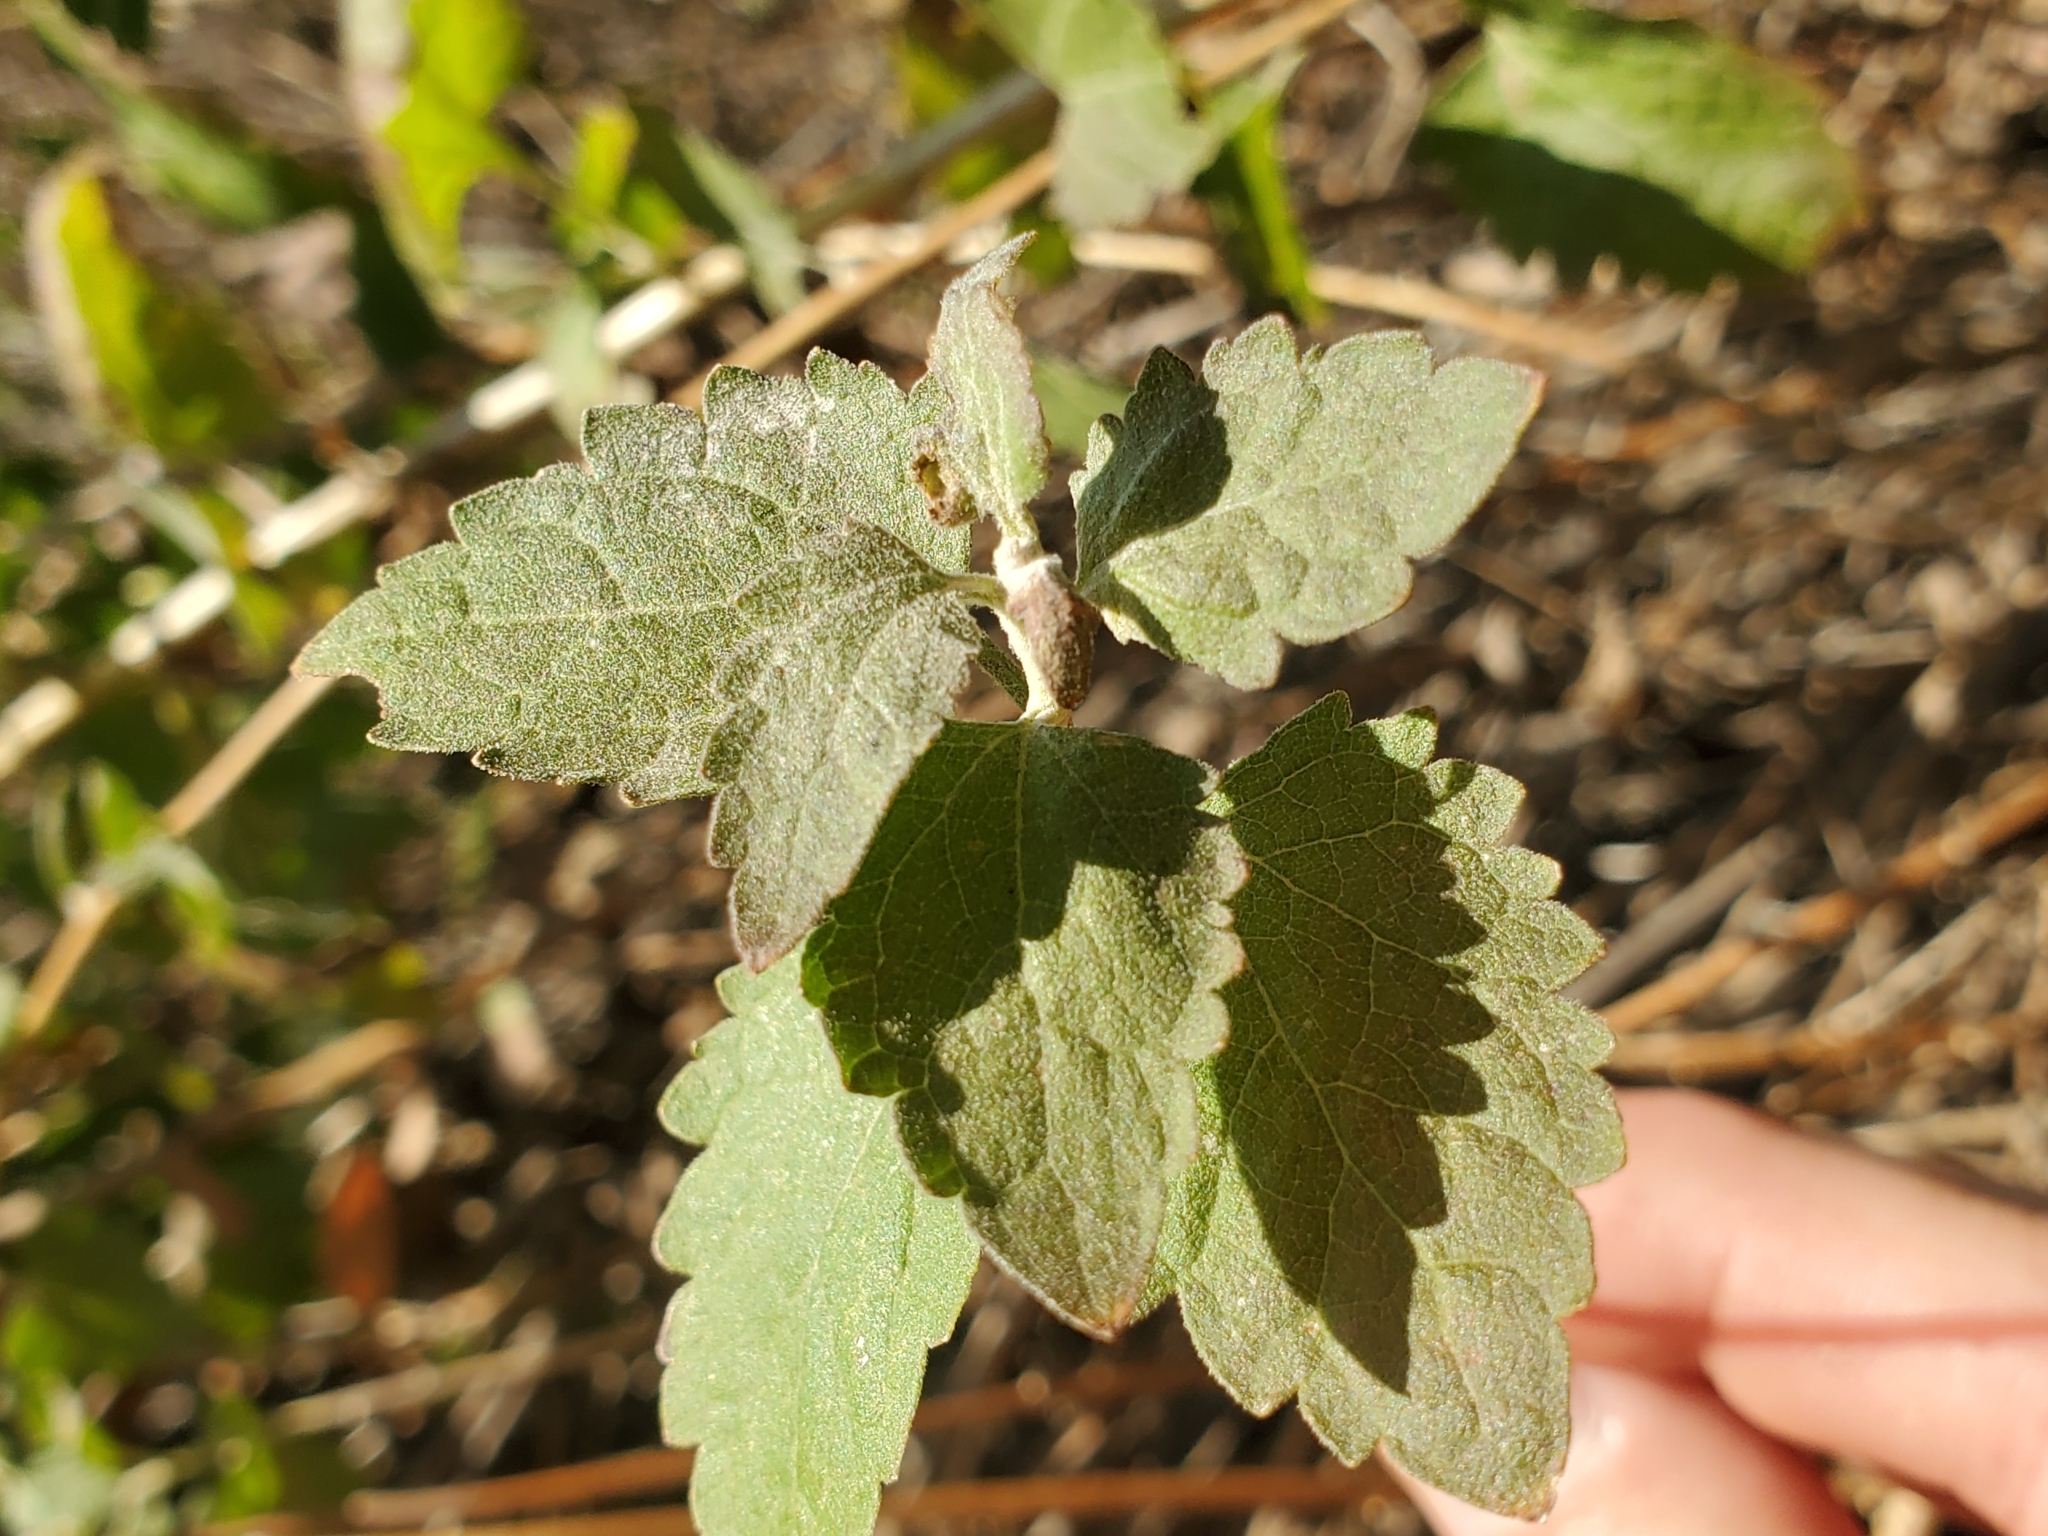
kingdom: Plantae
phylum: Tracheophyta
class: Magnoliopsida
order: Asterales
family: Asteraceae
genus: Brickellia
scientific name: Brickellia californica
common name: California brickellbush
